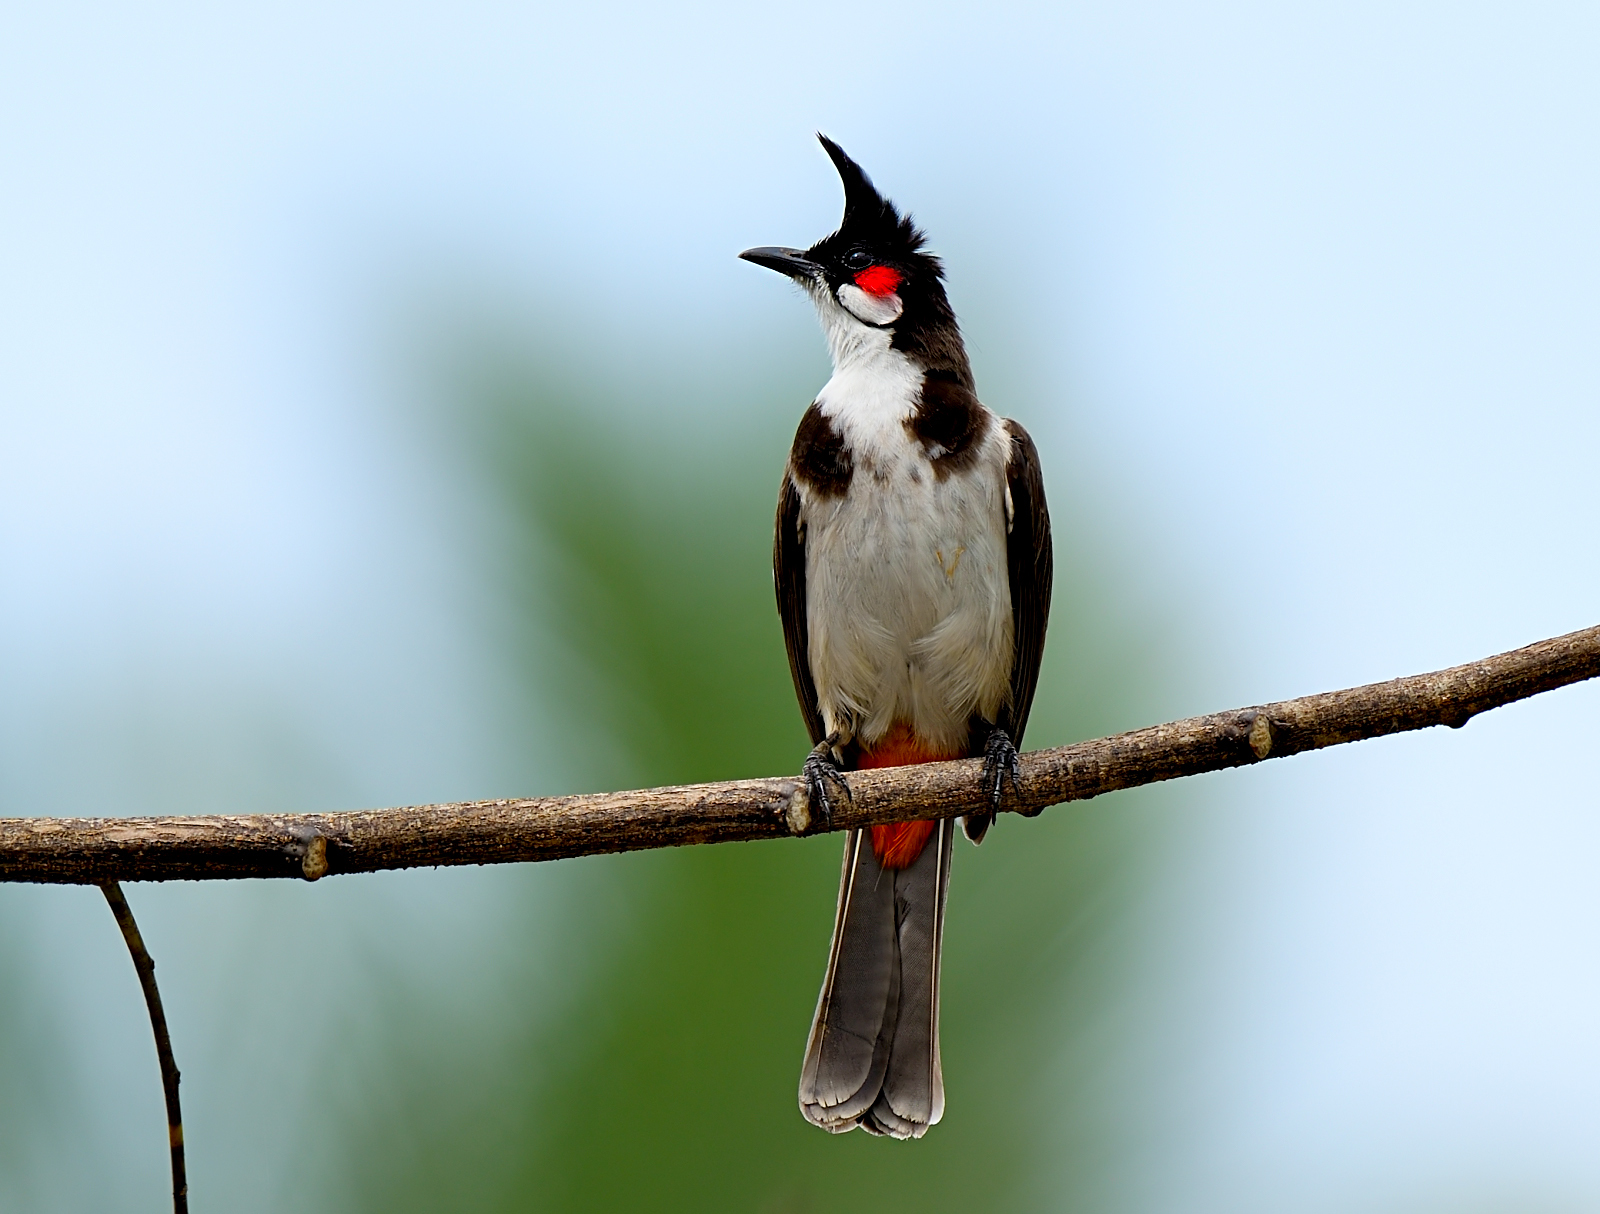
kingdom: Animalia
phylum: Chordata
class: Aves
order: Passeriformes
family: Pycnonotidae
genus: Pycnonotus
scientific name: Pycnonotus jocosus
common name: Red-whiskered bulbul
